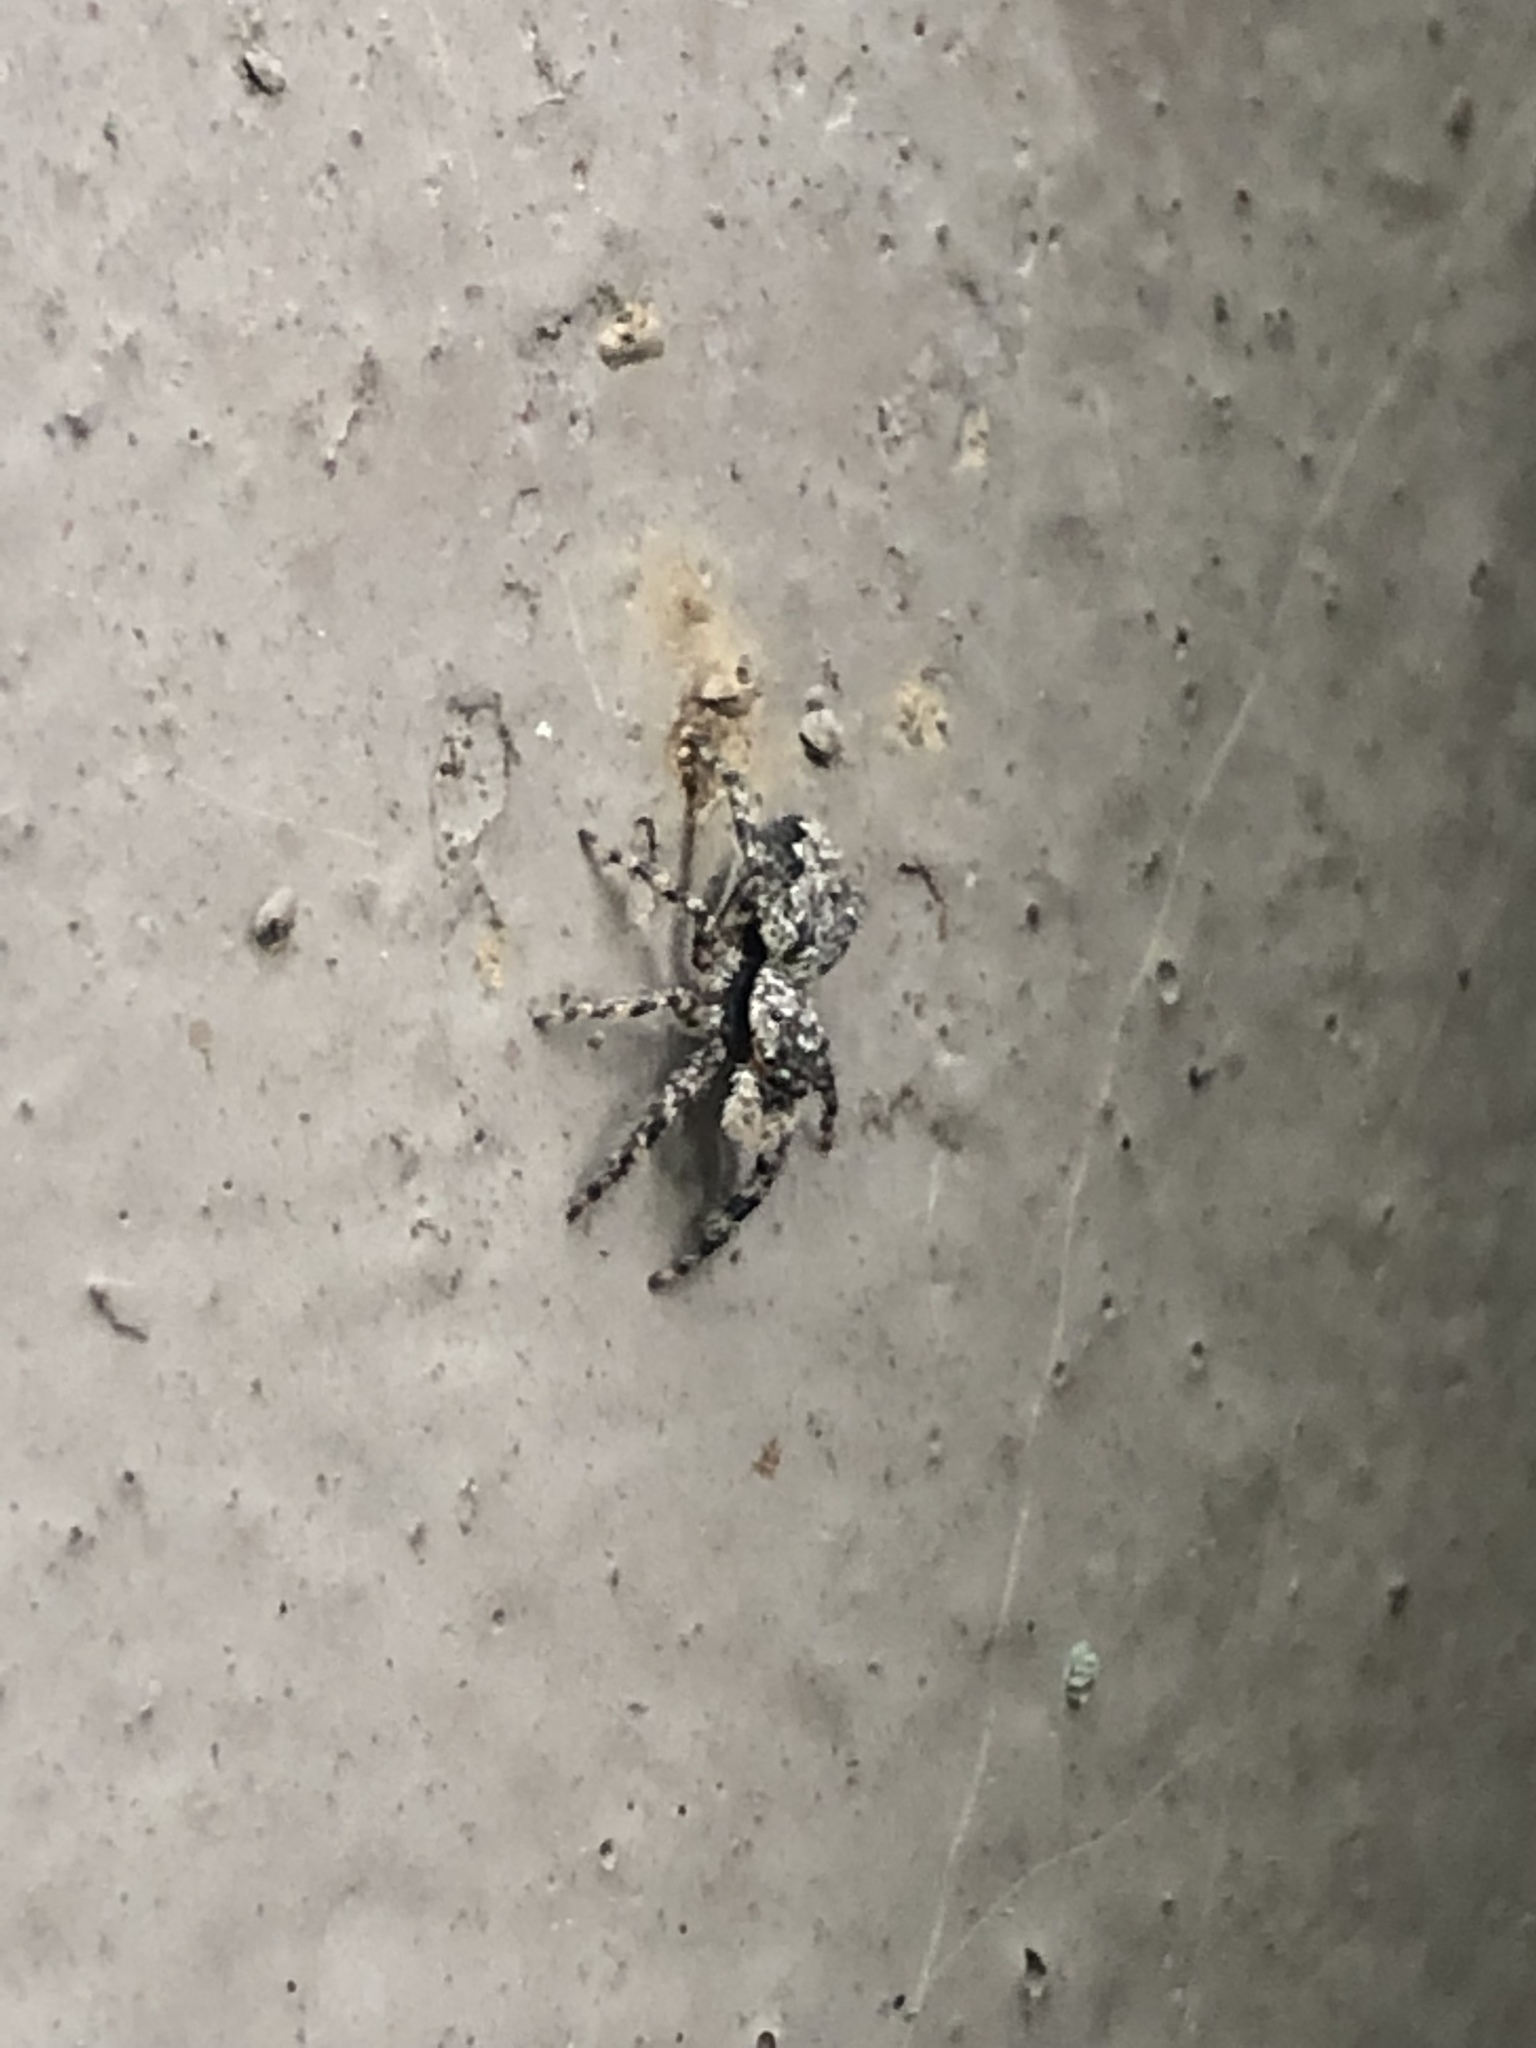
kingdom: Animalia
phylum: Arthropoda
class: Arachnida
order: Araneae
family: Salticidae
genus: Platycryptus
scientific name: Platycryptus undatus
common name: Tan jumping spider
